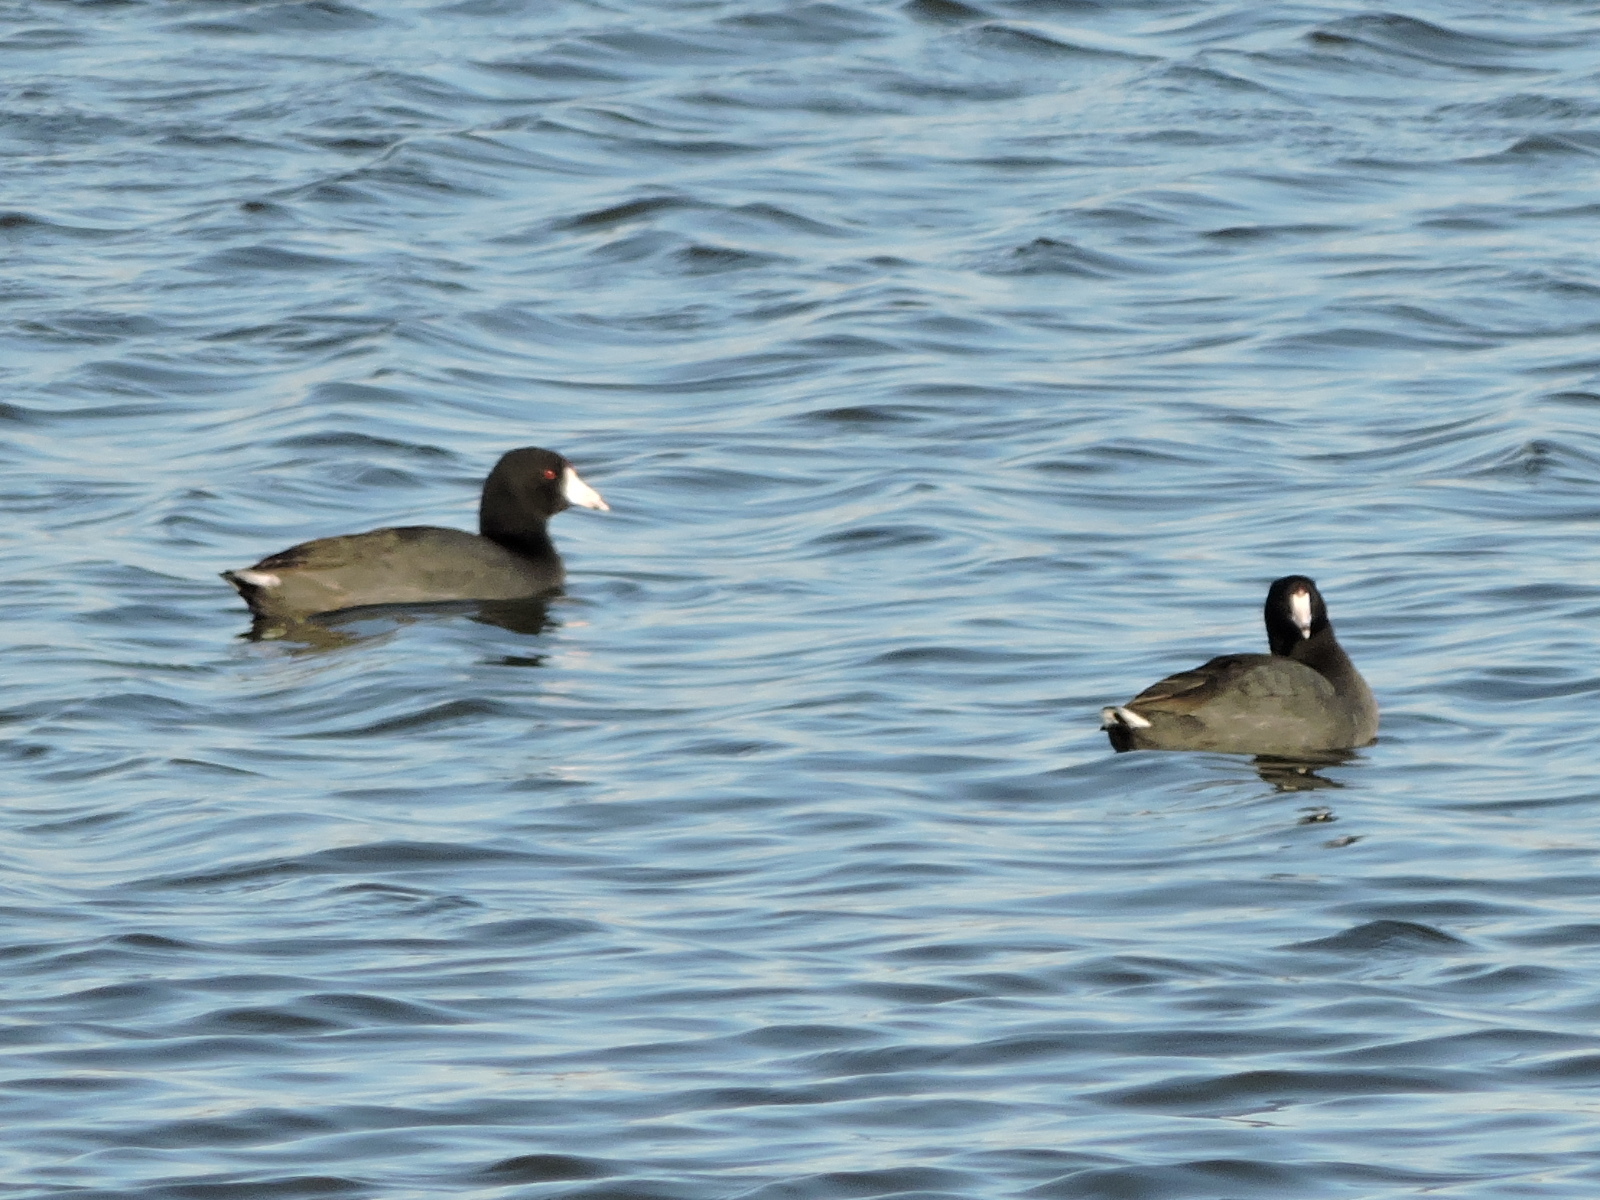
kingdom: Animalia
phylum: Chordata
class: Aves
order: Gruiformes
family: Rallidae
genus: Fulica
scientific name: Fulica americana
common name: American coot
